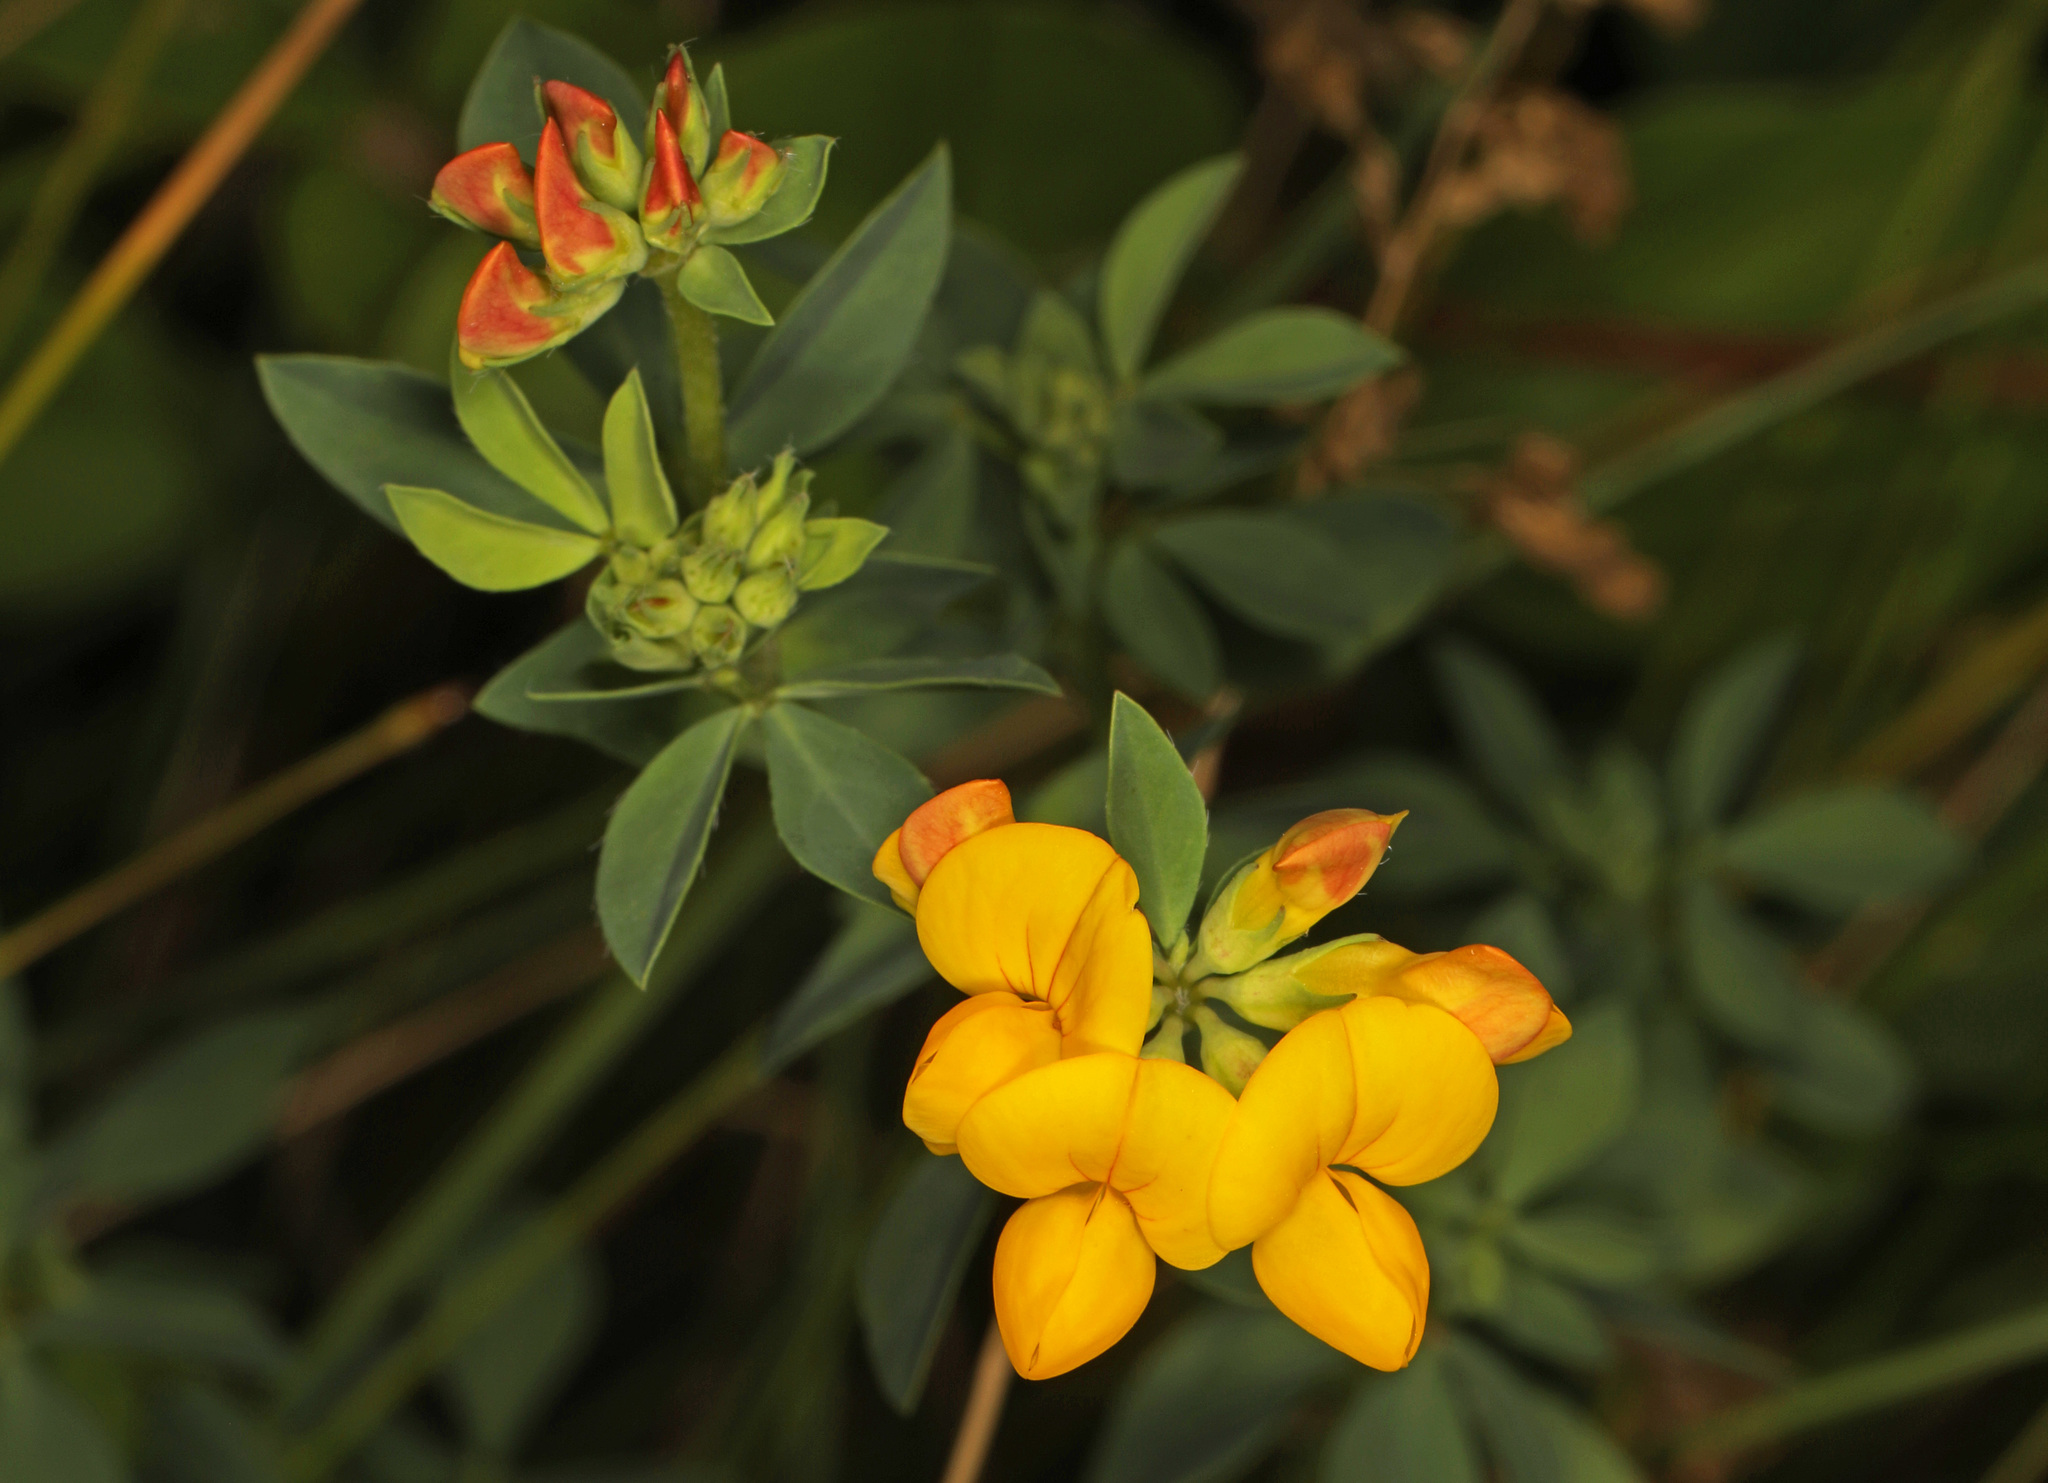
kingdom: Plantae
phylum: Tracheophyta
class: Magnoliopsida
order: Fabales
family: Fabaceae
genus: Lotus
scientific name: Lotus corniculatus
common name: Common bird's-foot-trefoil
